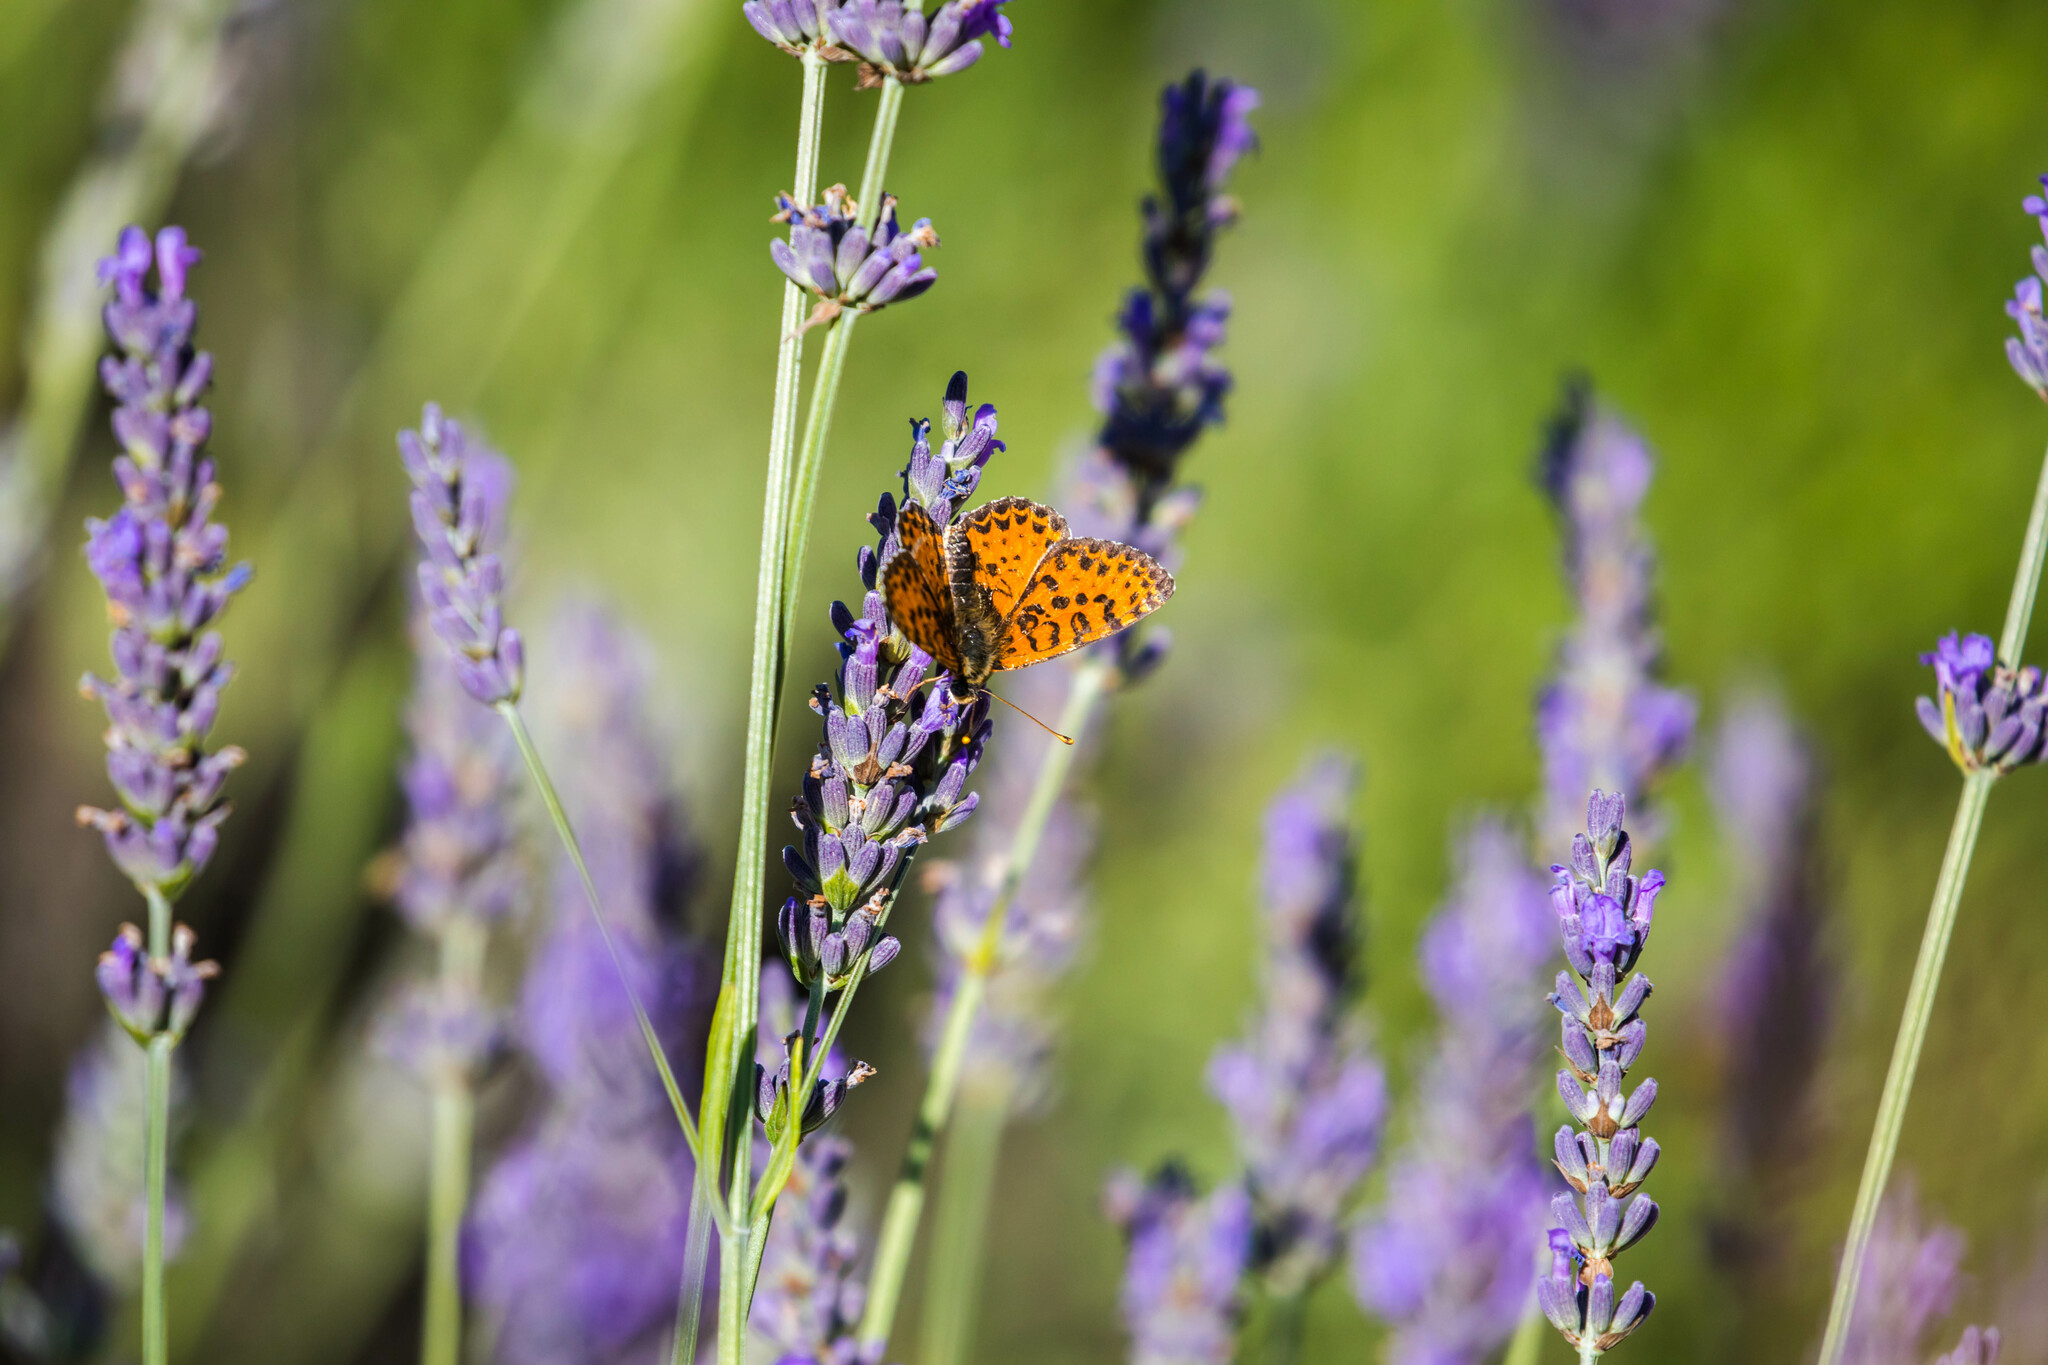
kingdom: Animalia
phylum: Arthropoda
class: Insecta
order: Lepidoptera
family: Nymphalidae
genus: Melitaea
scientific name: Melitaea didyma
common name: Spotted fritillary
